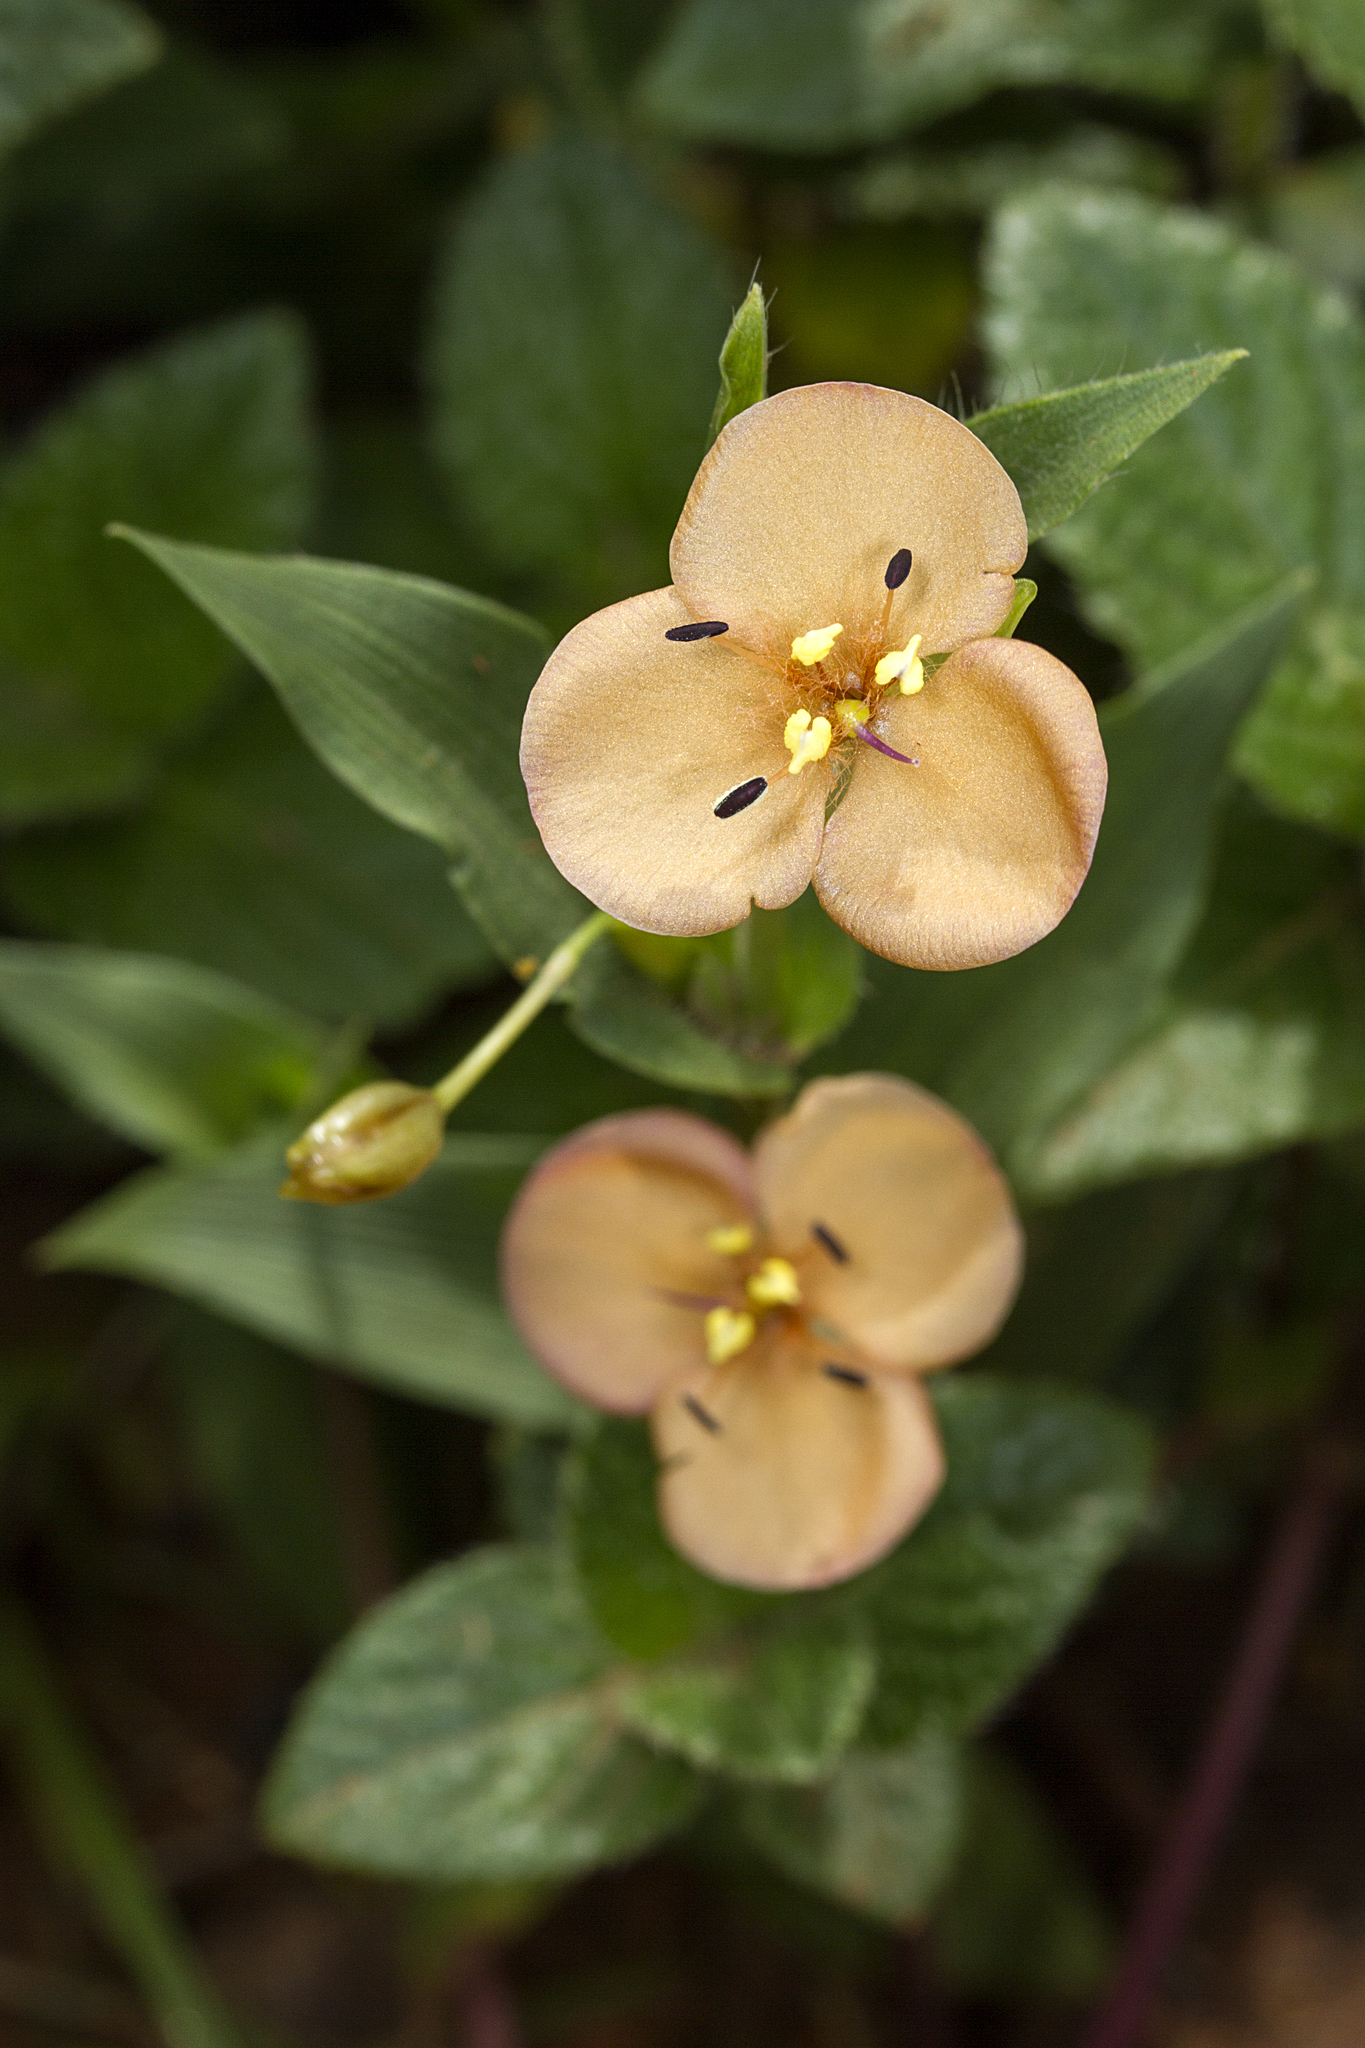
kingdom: Plantae
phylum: Tracheophyta
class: Liliopsida
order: Commelinales
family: Commelinaceae
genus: Murdannia
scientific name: Murdannia lanuginosa
